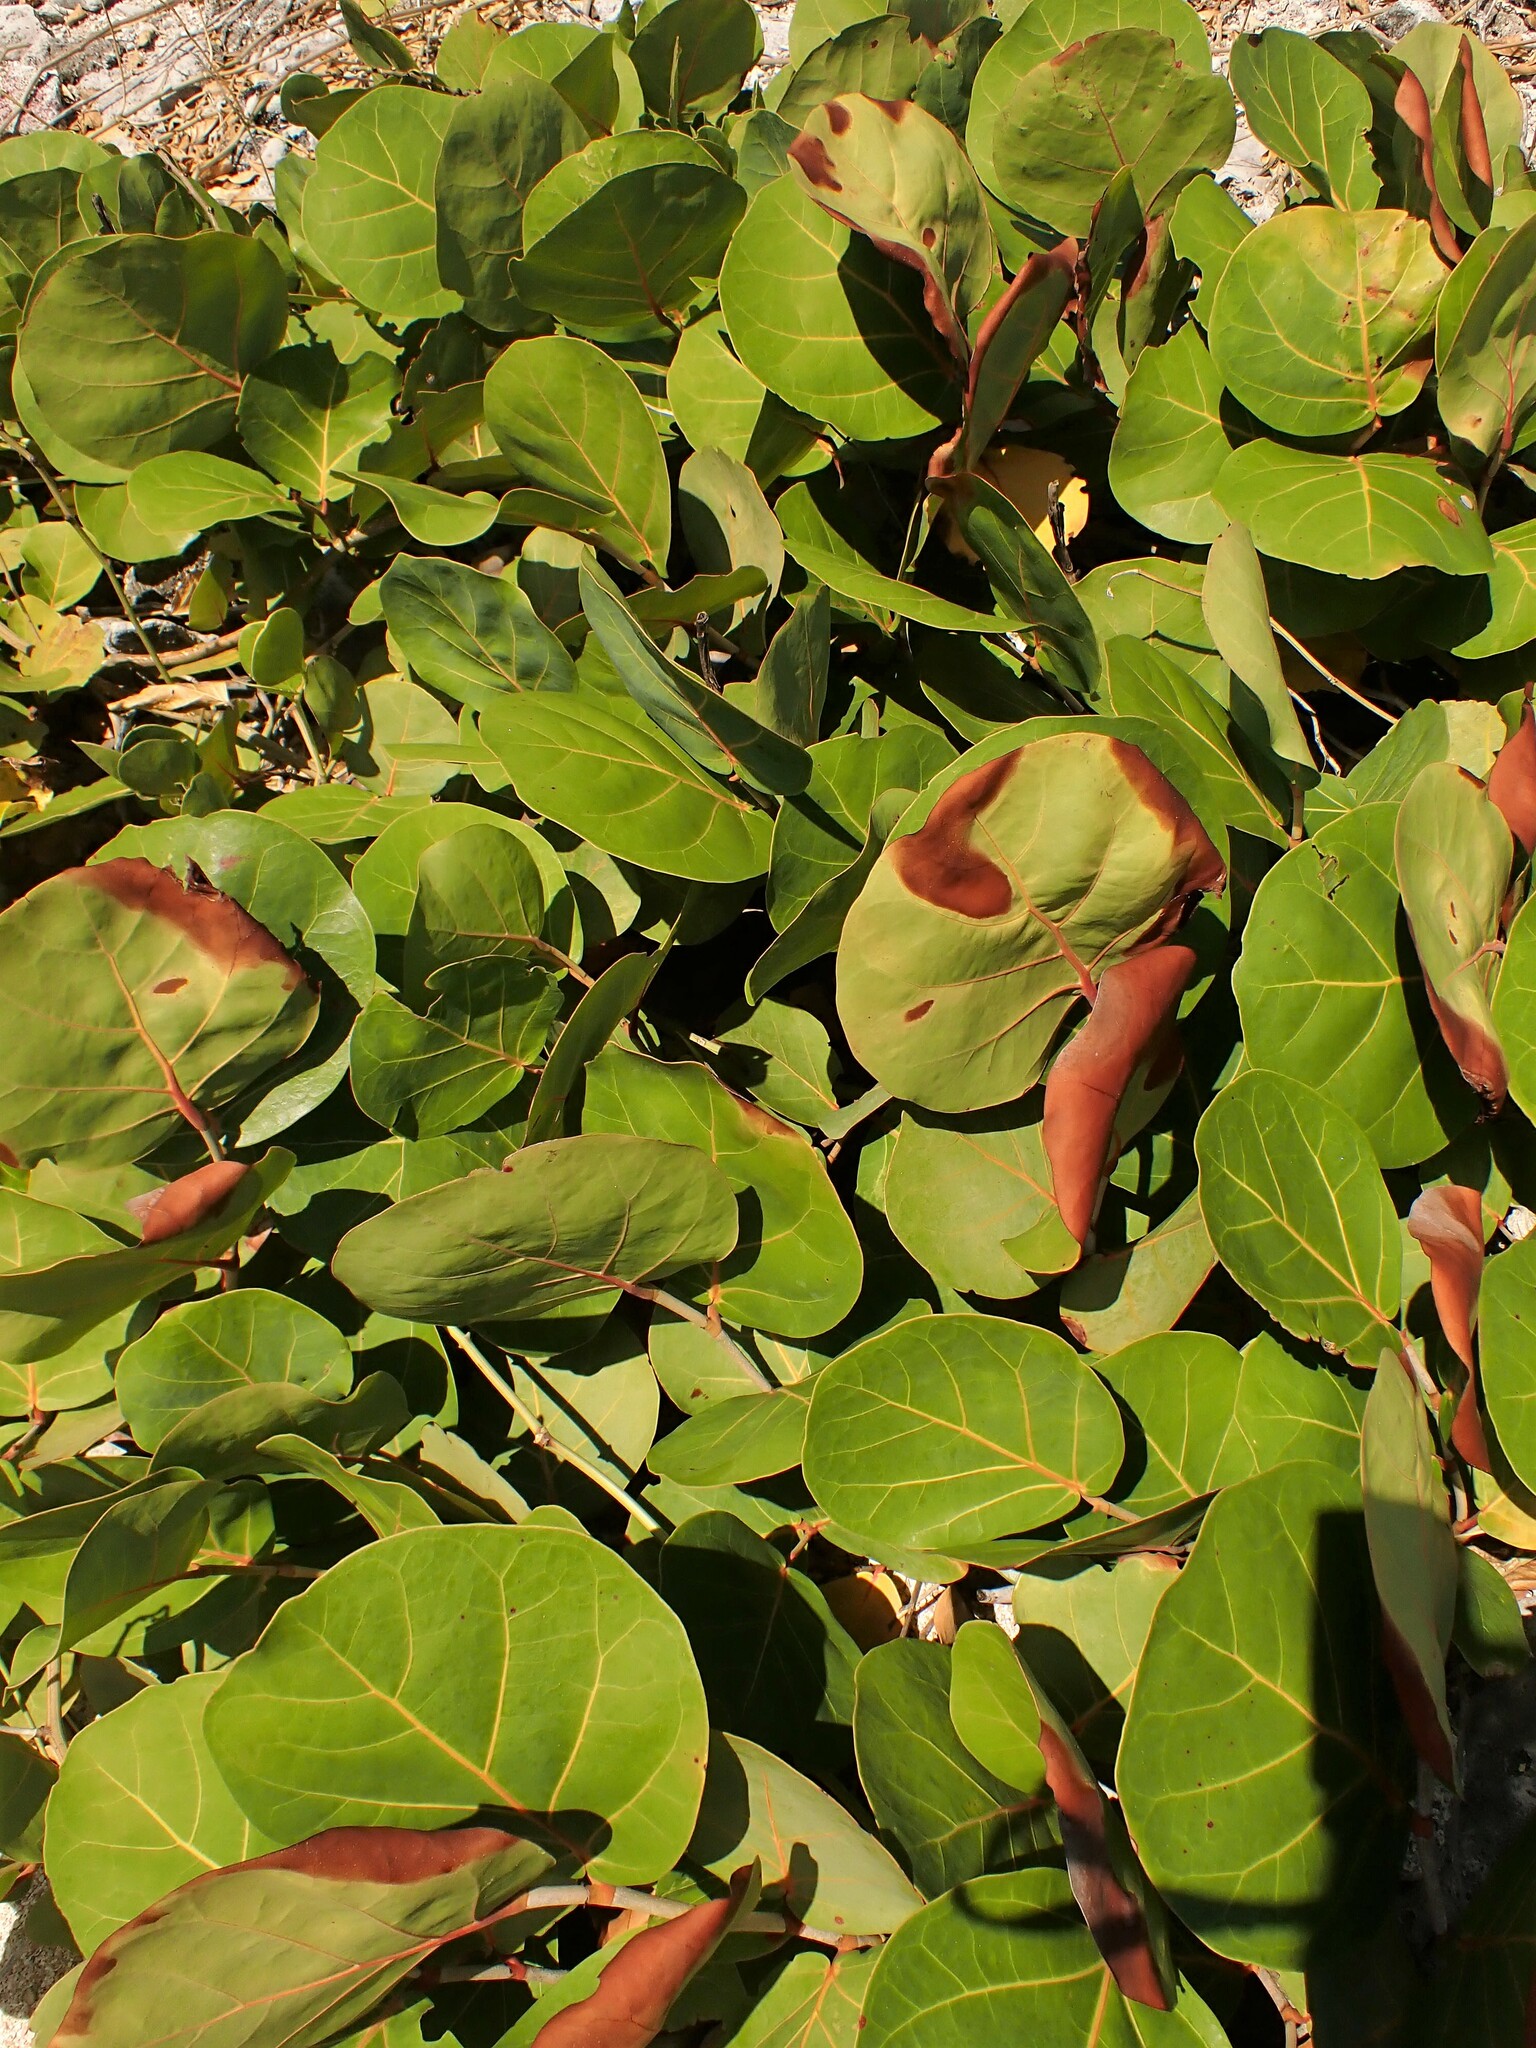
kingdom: Plantae
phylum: Tracheophyta
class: Magnoliopsida
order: Caryophyllales
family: Polygonaceae
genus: Coccoloba
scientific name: Coccoloba uvifera
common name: Seagrape
